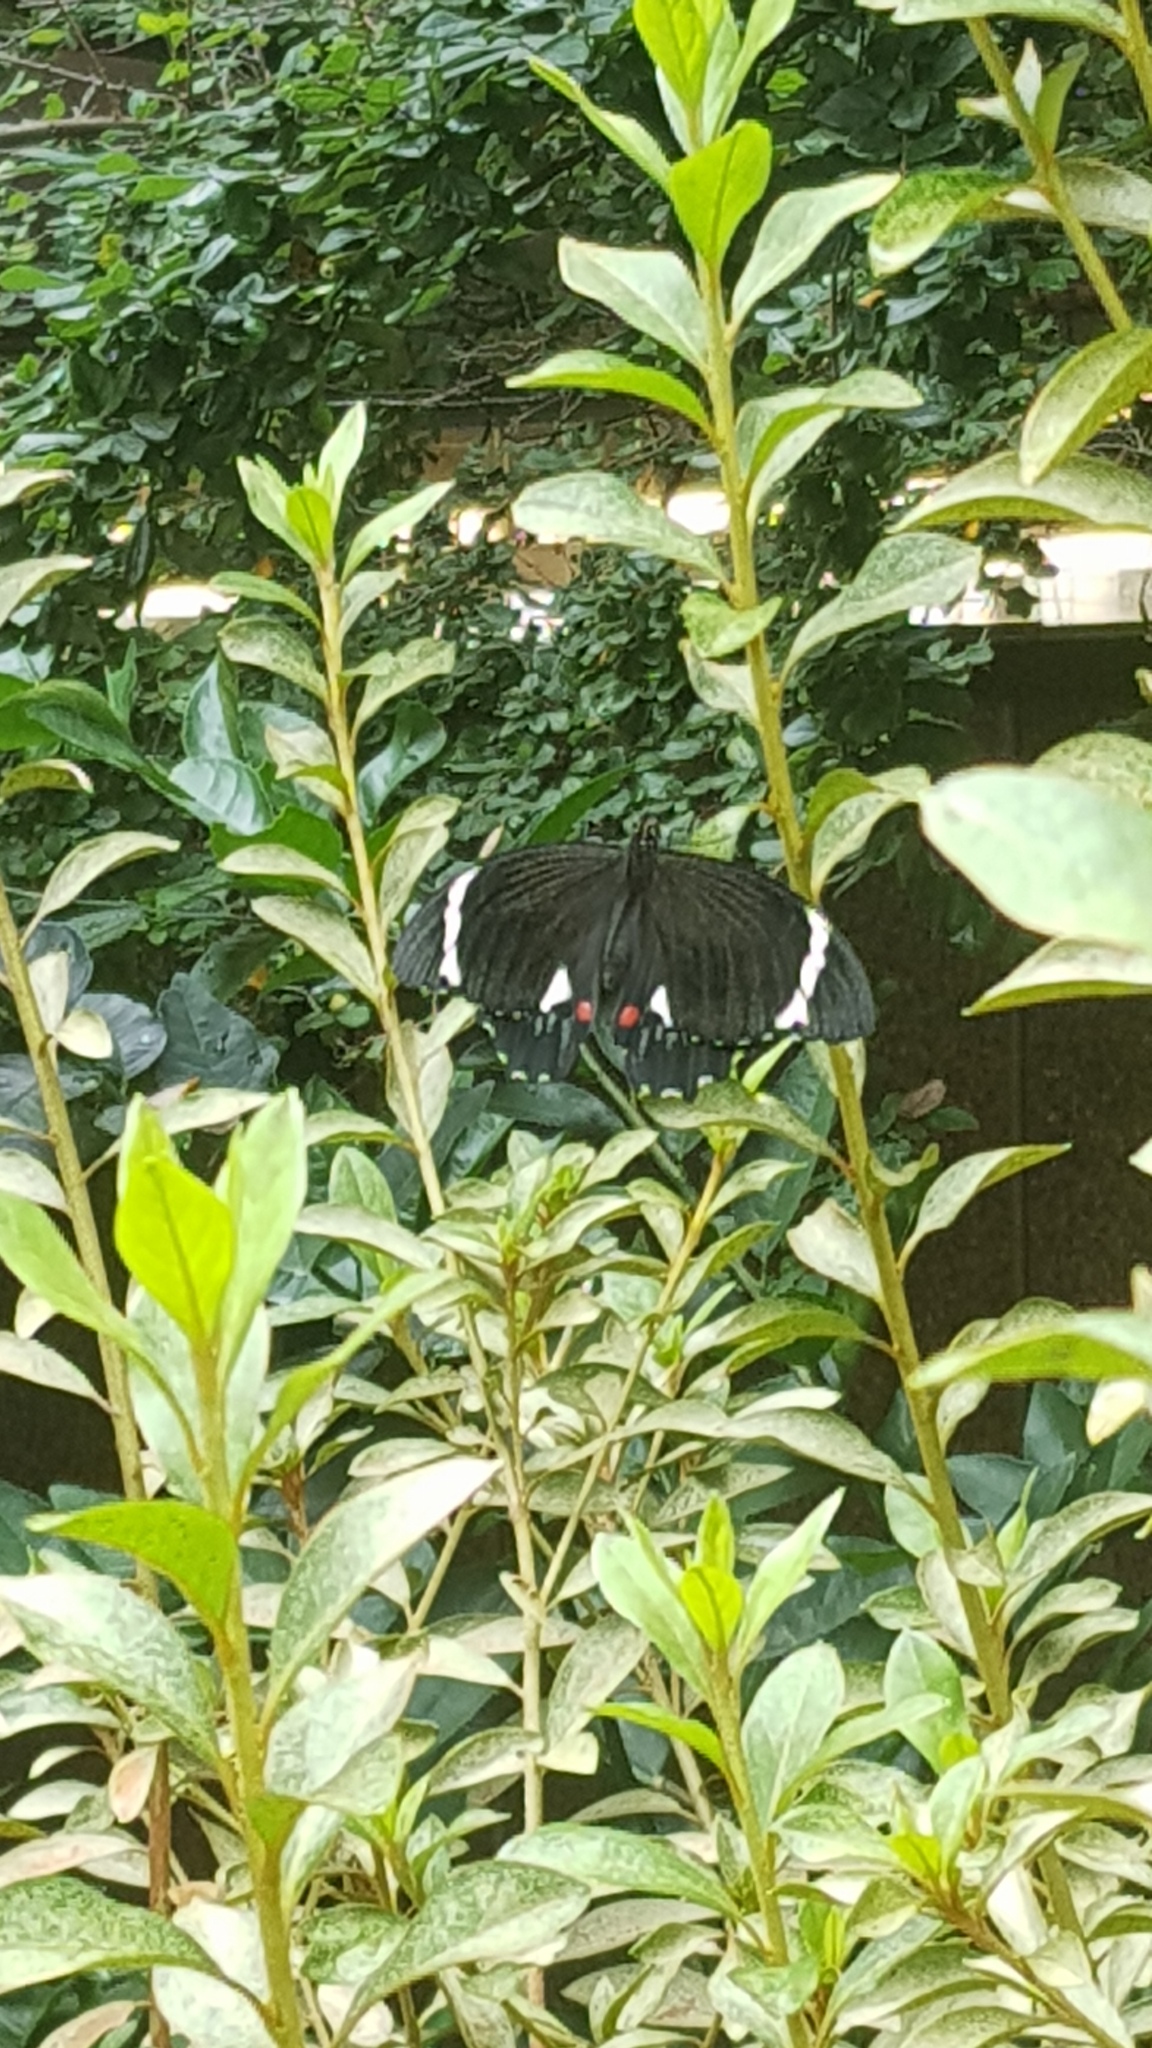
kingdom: Animalia
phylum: Arthropoda
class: Insecta
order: Lepidoptera
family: Papilionidae
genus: Papilio
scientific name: Papilio aegeus
